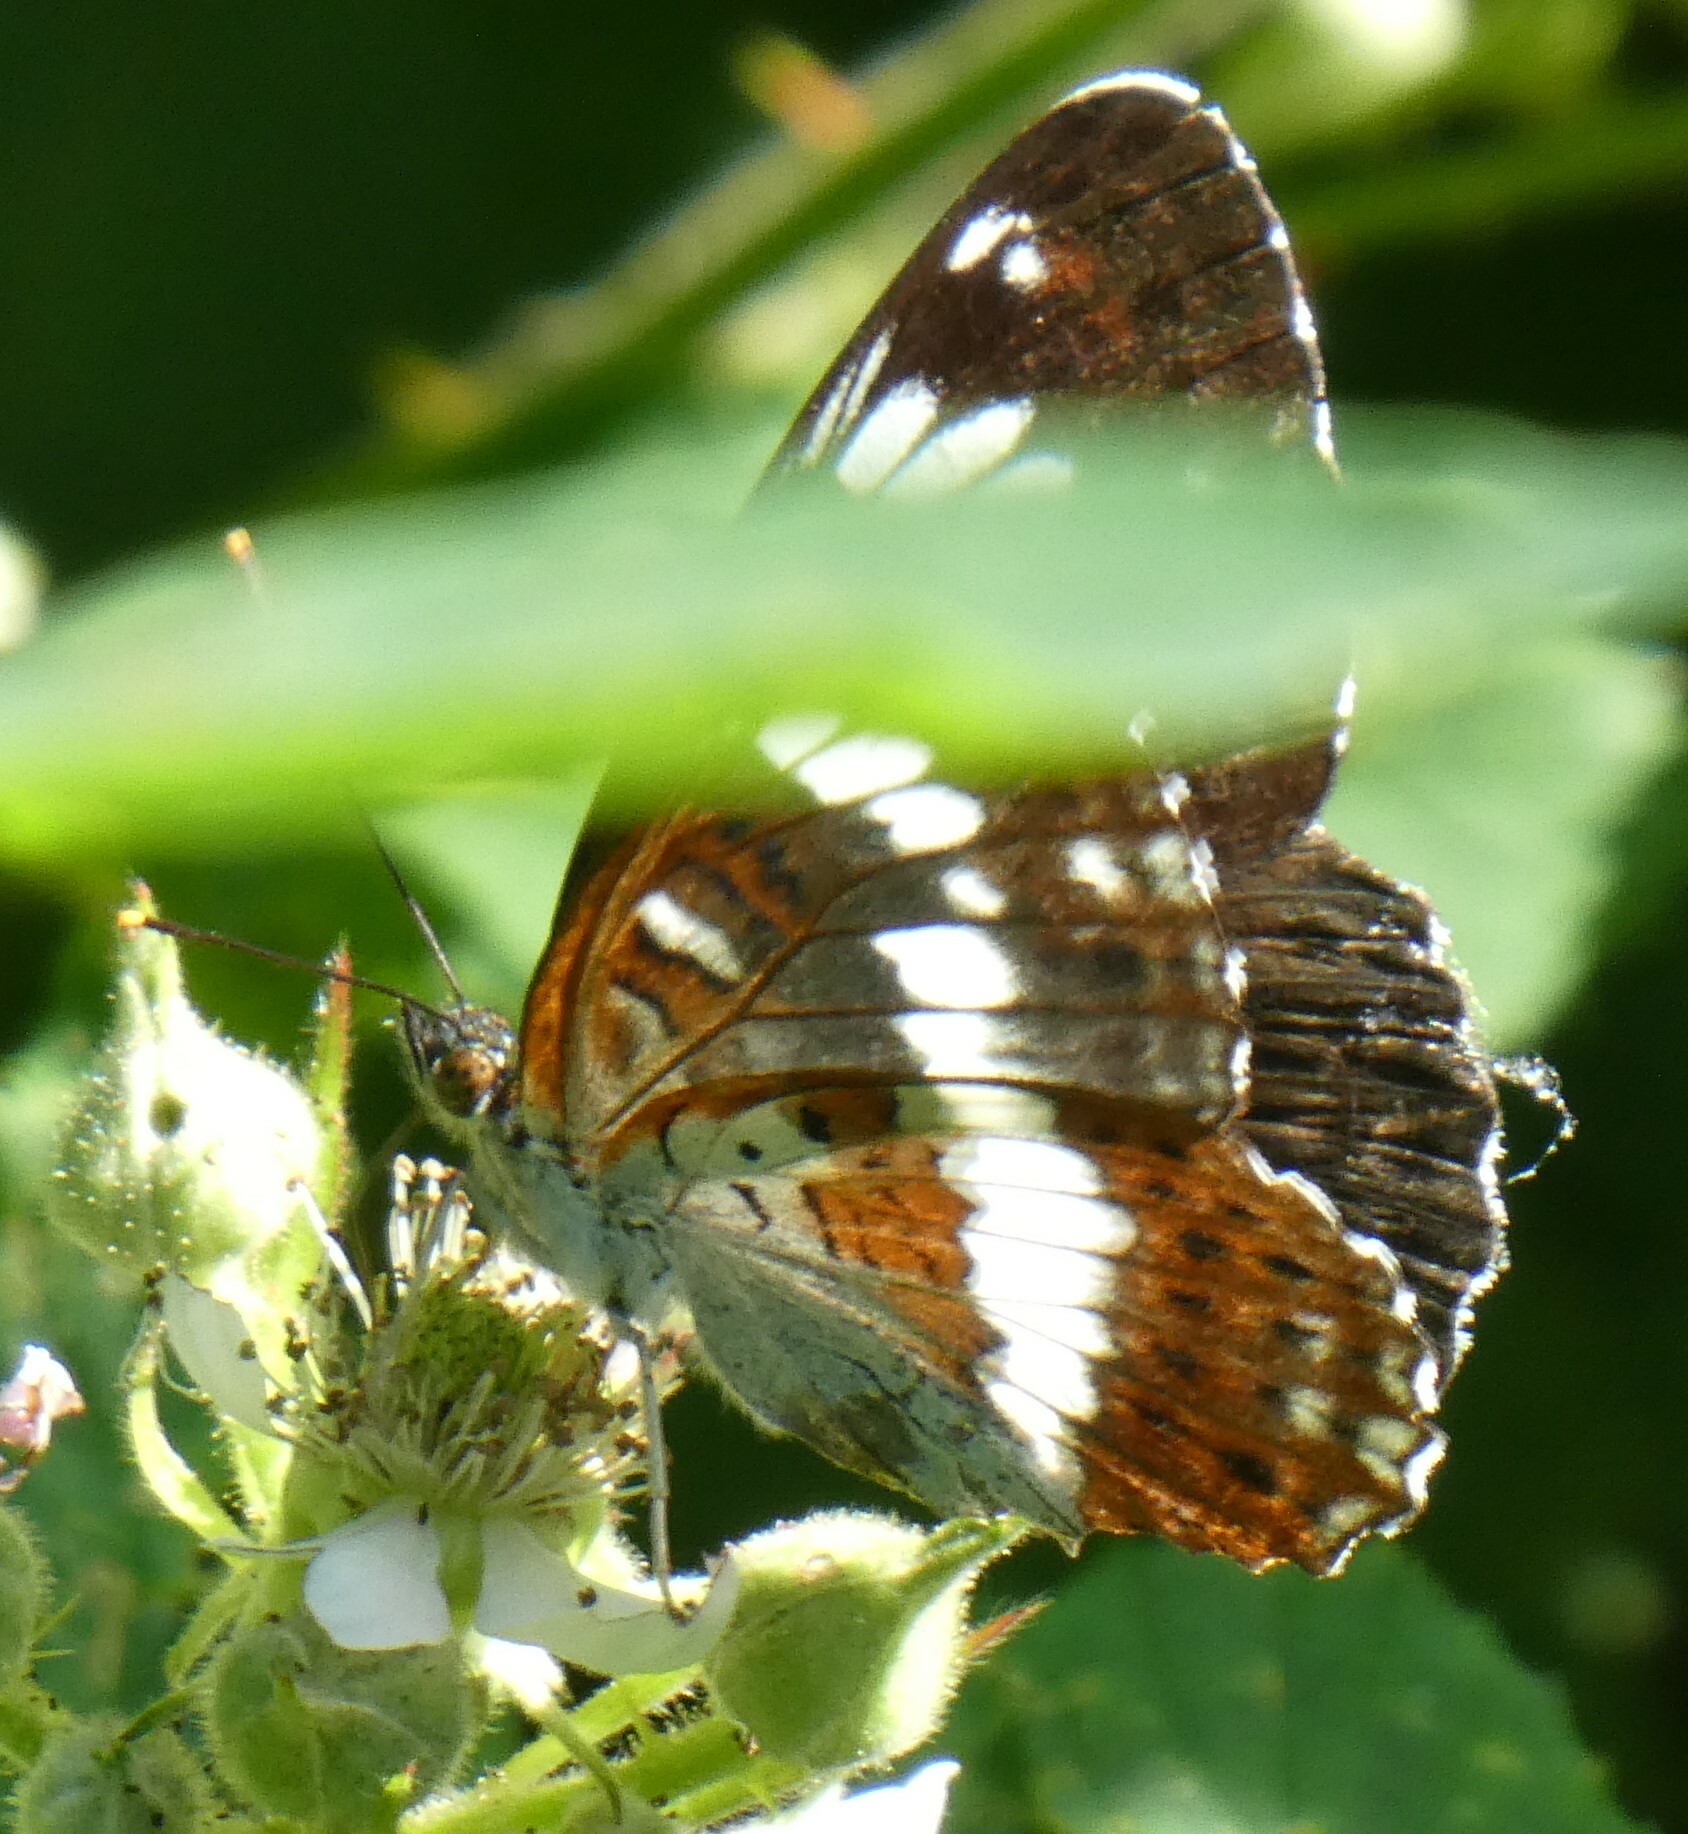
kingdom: Animalia
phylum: Arthropoda
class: Insecta
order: Lepidoptera
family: Nymphalidae
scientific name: Nymphalidae
